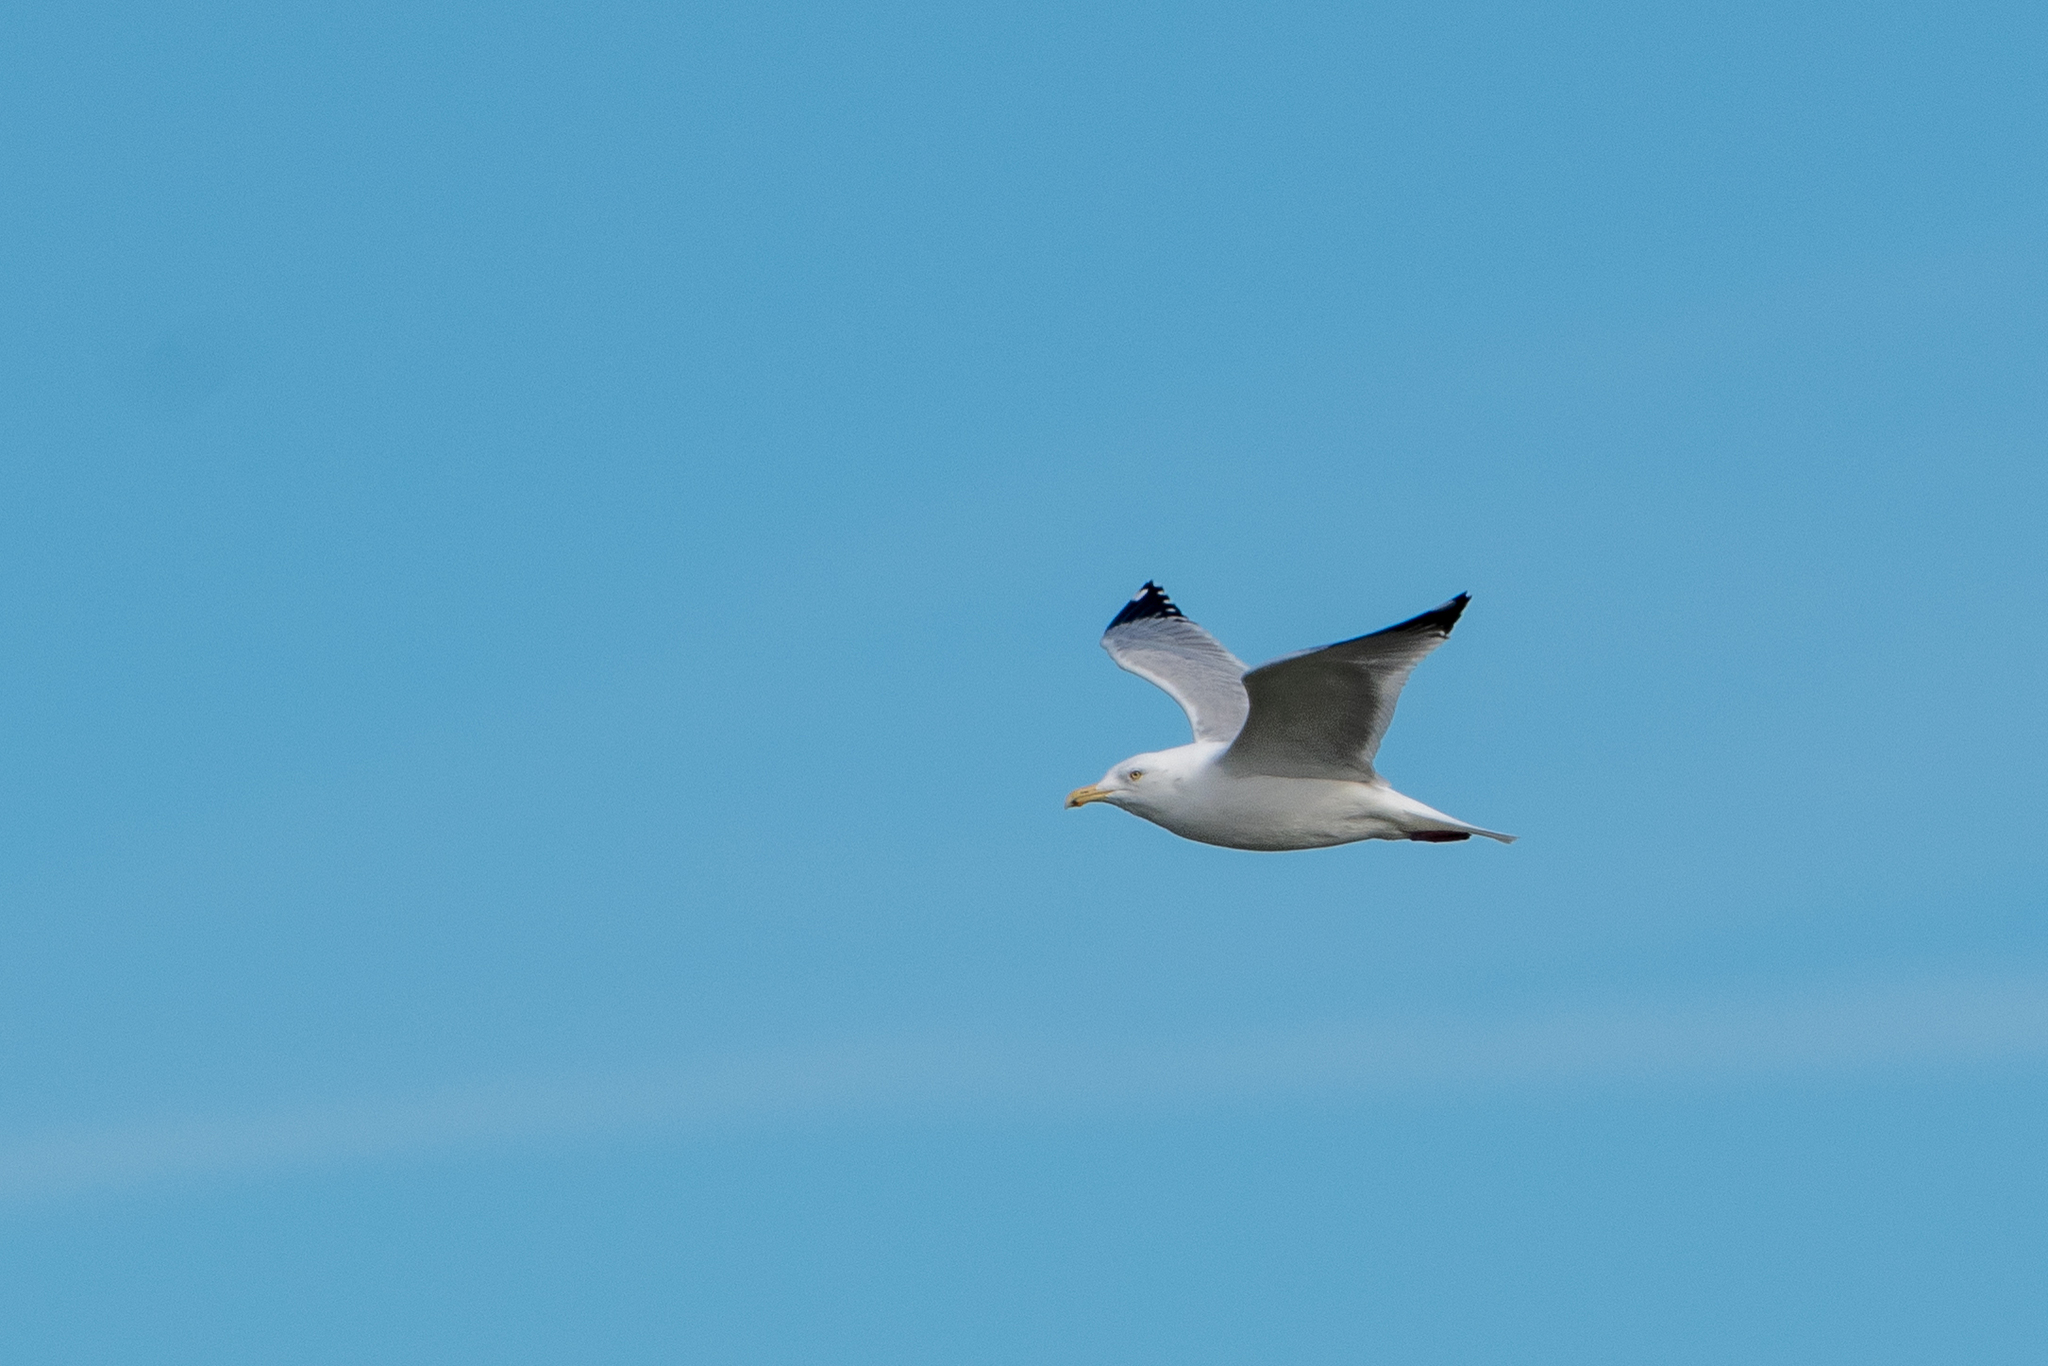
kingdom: Animalia
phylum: Chordata
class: Aves
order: Charadriiformes
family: Laridae
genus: Larus
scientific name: Larus argentatus
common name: Herring gull
